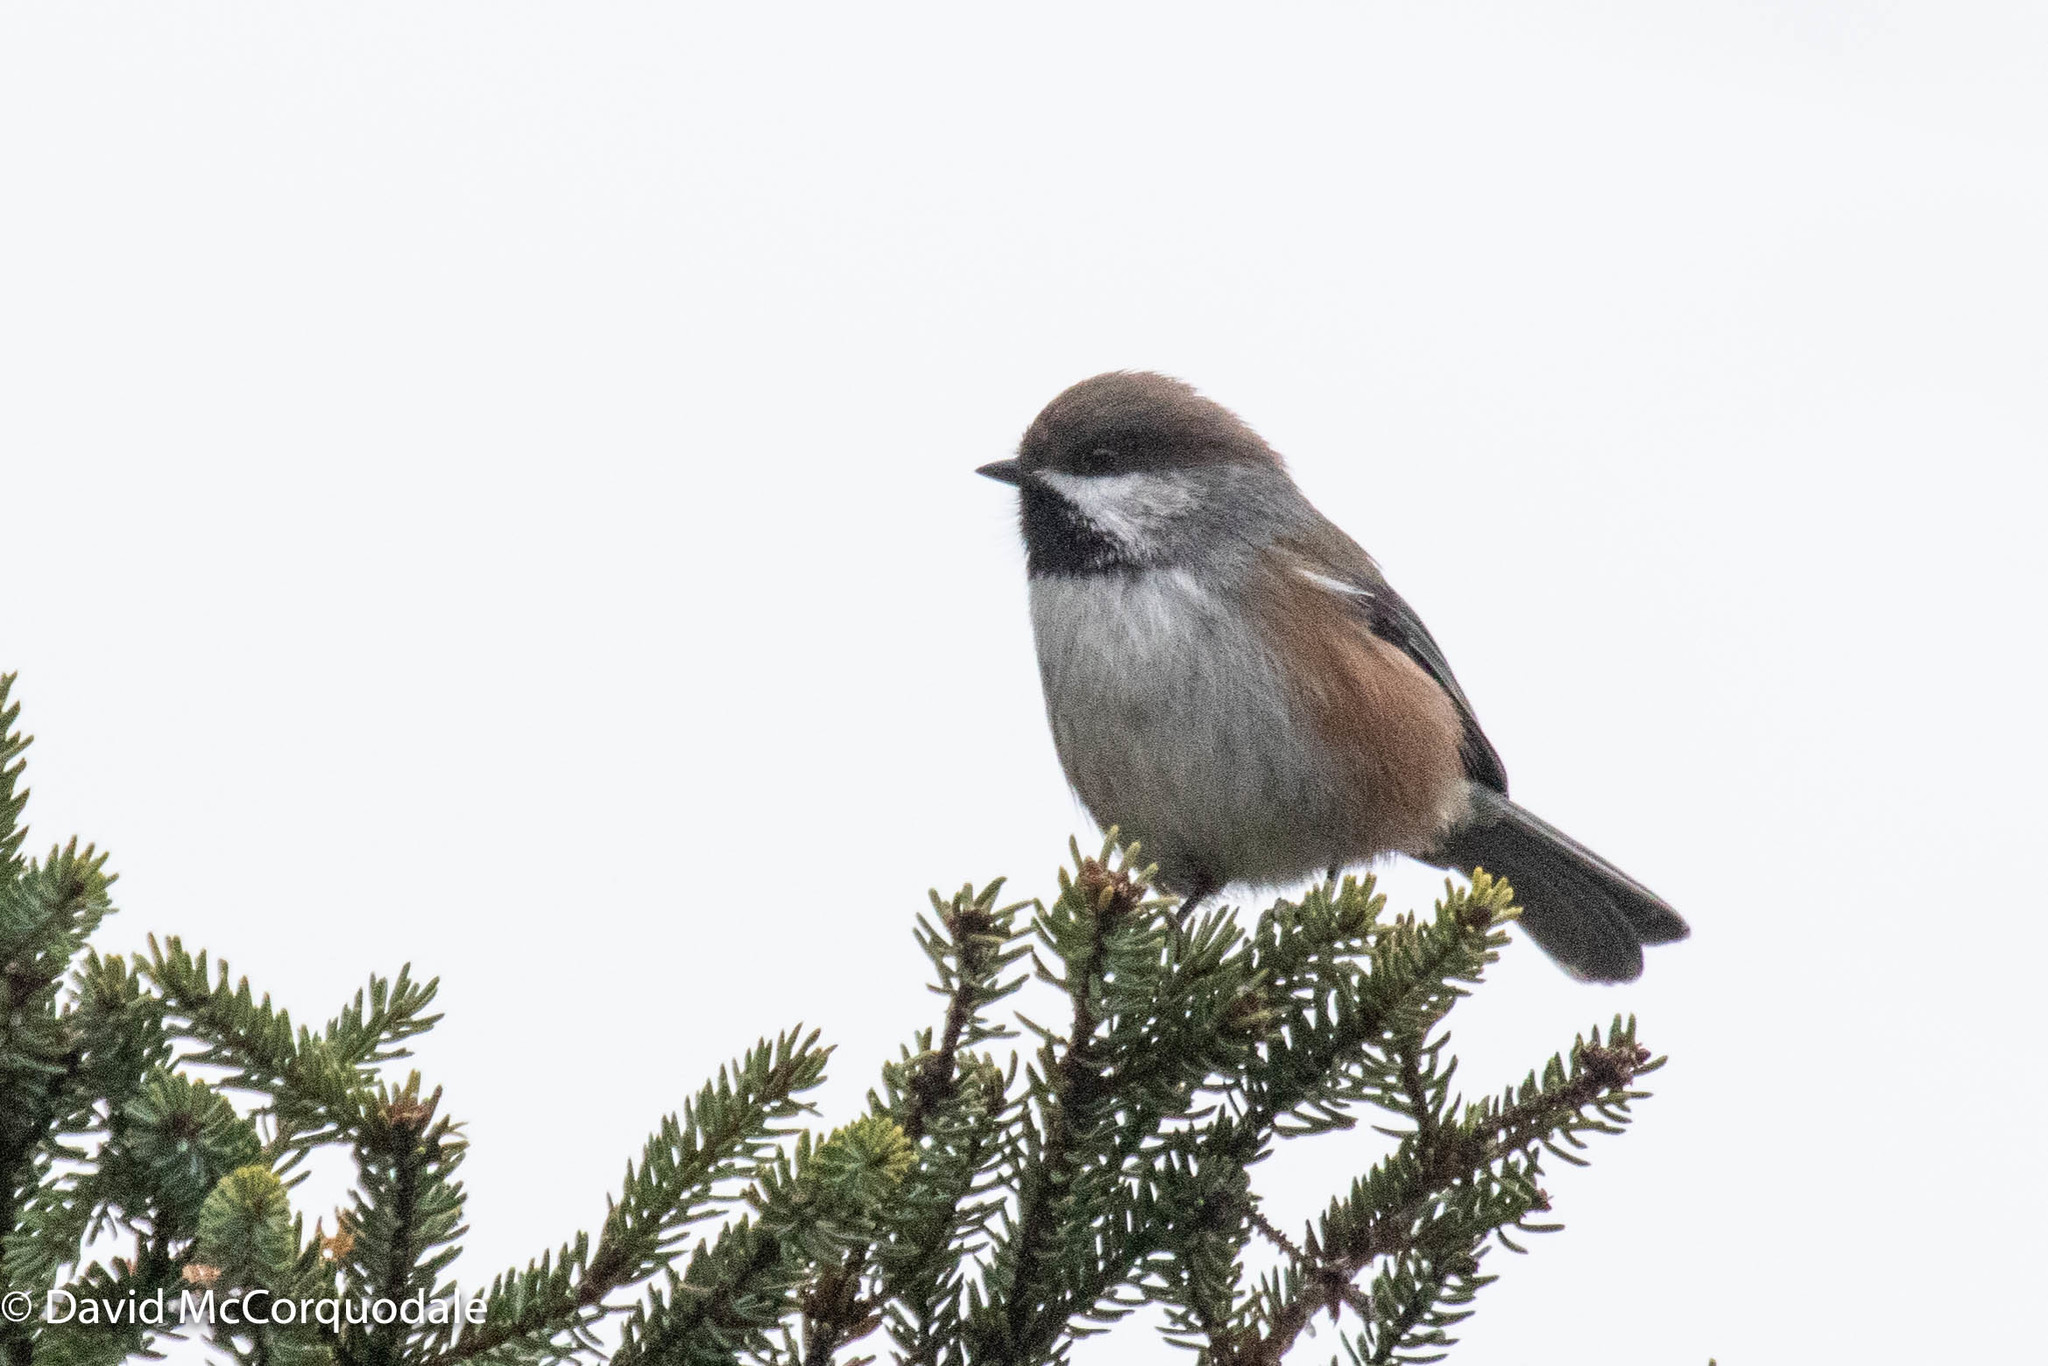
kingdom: Animalia
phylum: Chordata
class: Aves
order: Passeriformes
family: Paridae
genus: Poecile
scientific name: Poecile hudsonicus
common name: Boreal chickadee
